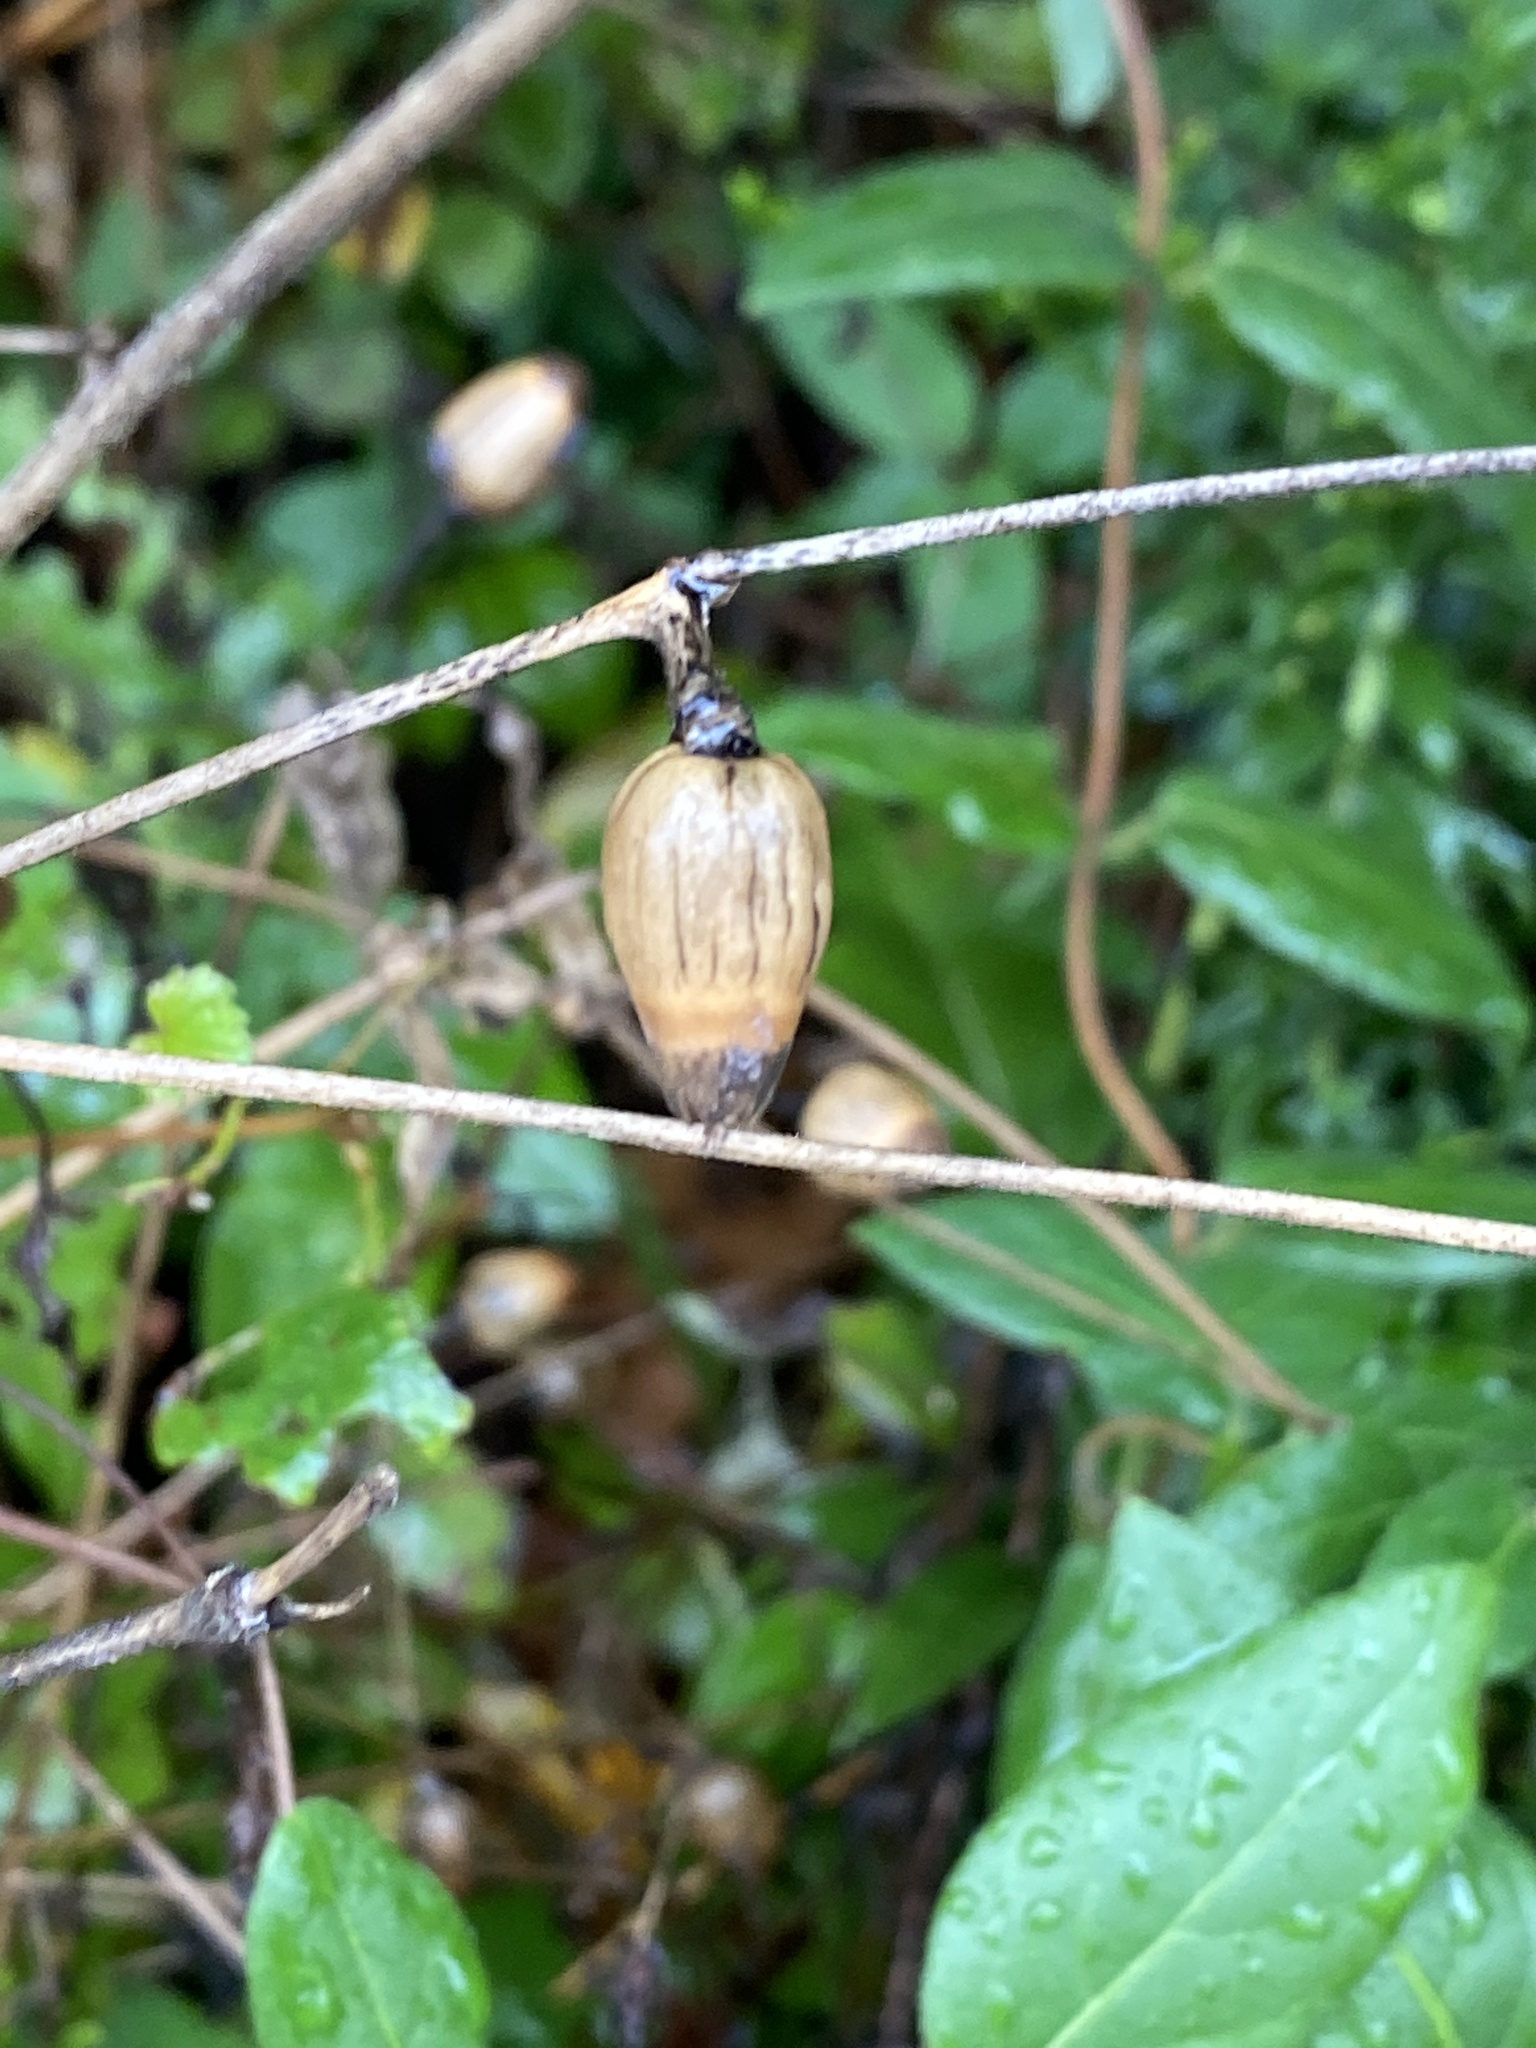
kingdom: Plantae
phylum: Tracheophyta
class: Magnoliopsida
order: Caryophyllales
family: Caryophyllaceae
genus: Silene
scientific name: Silene latifolia
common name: White campion
